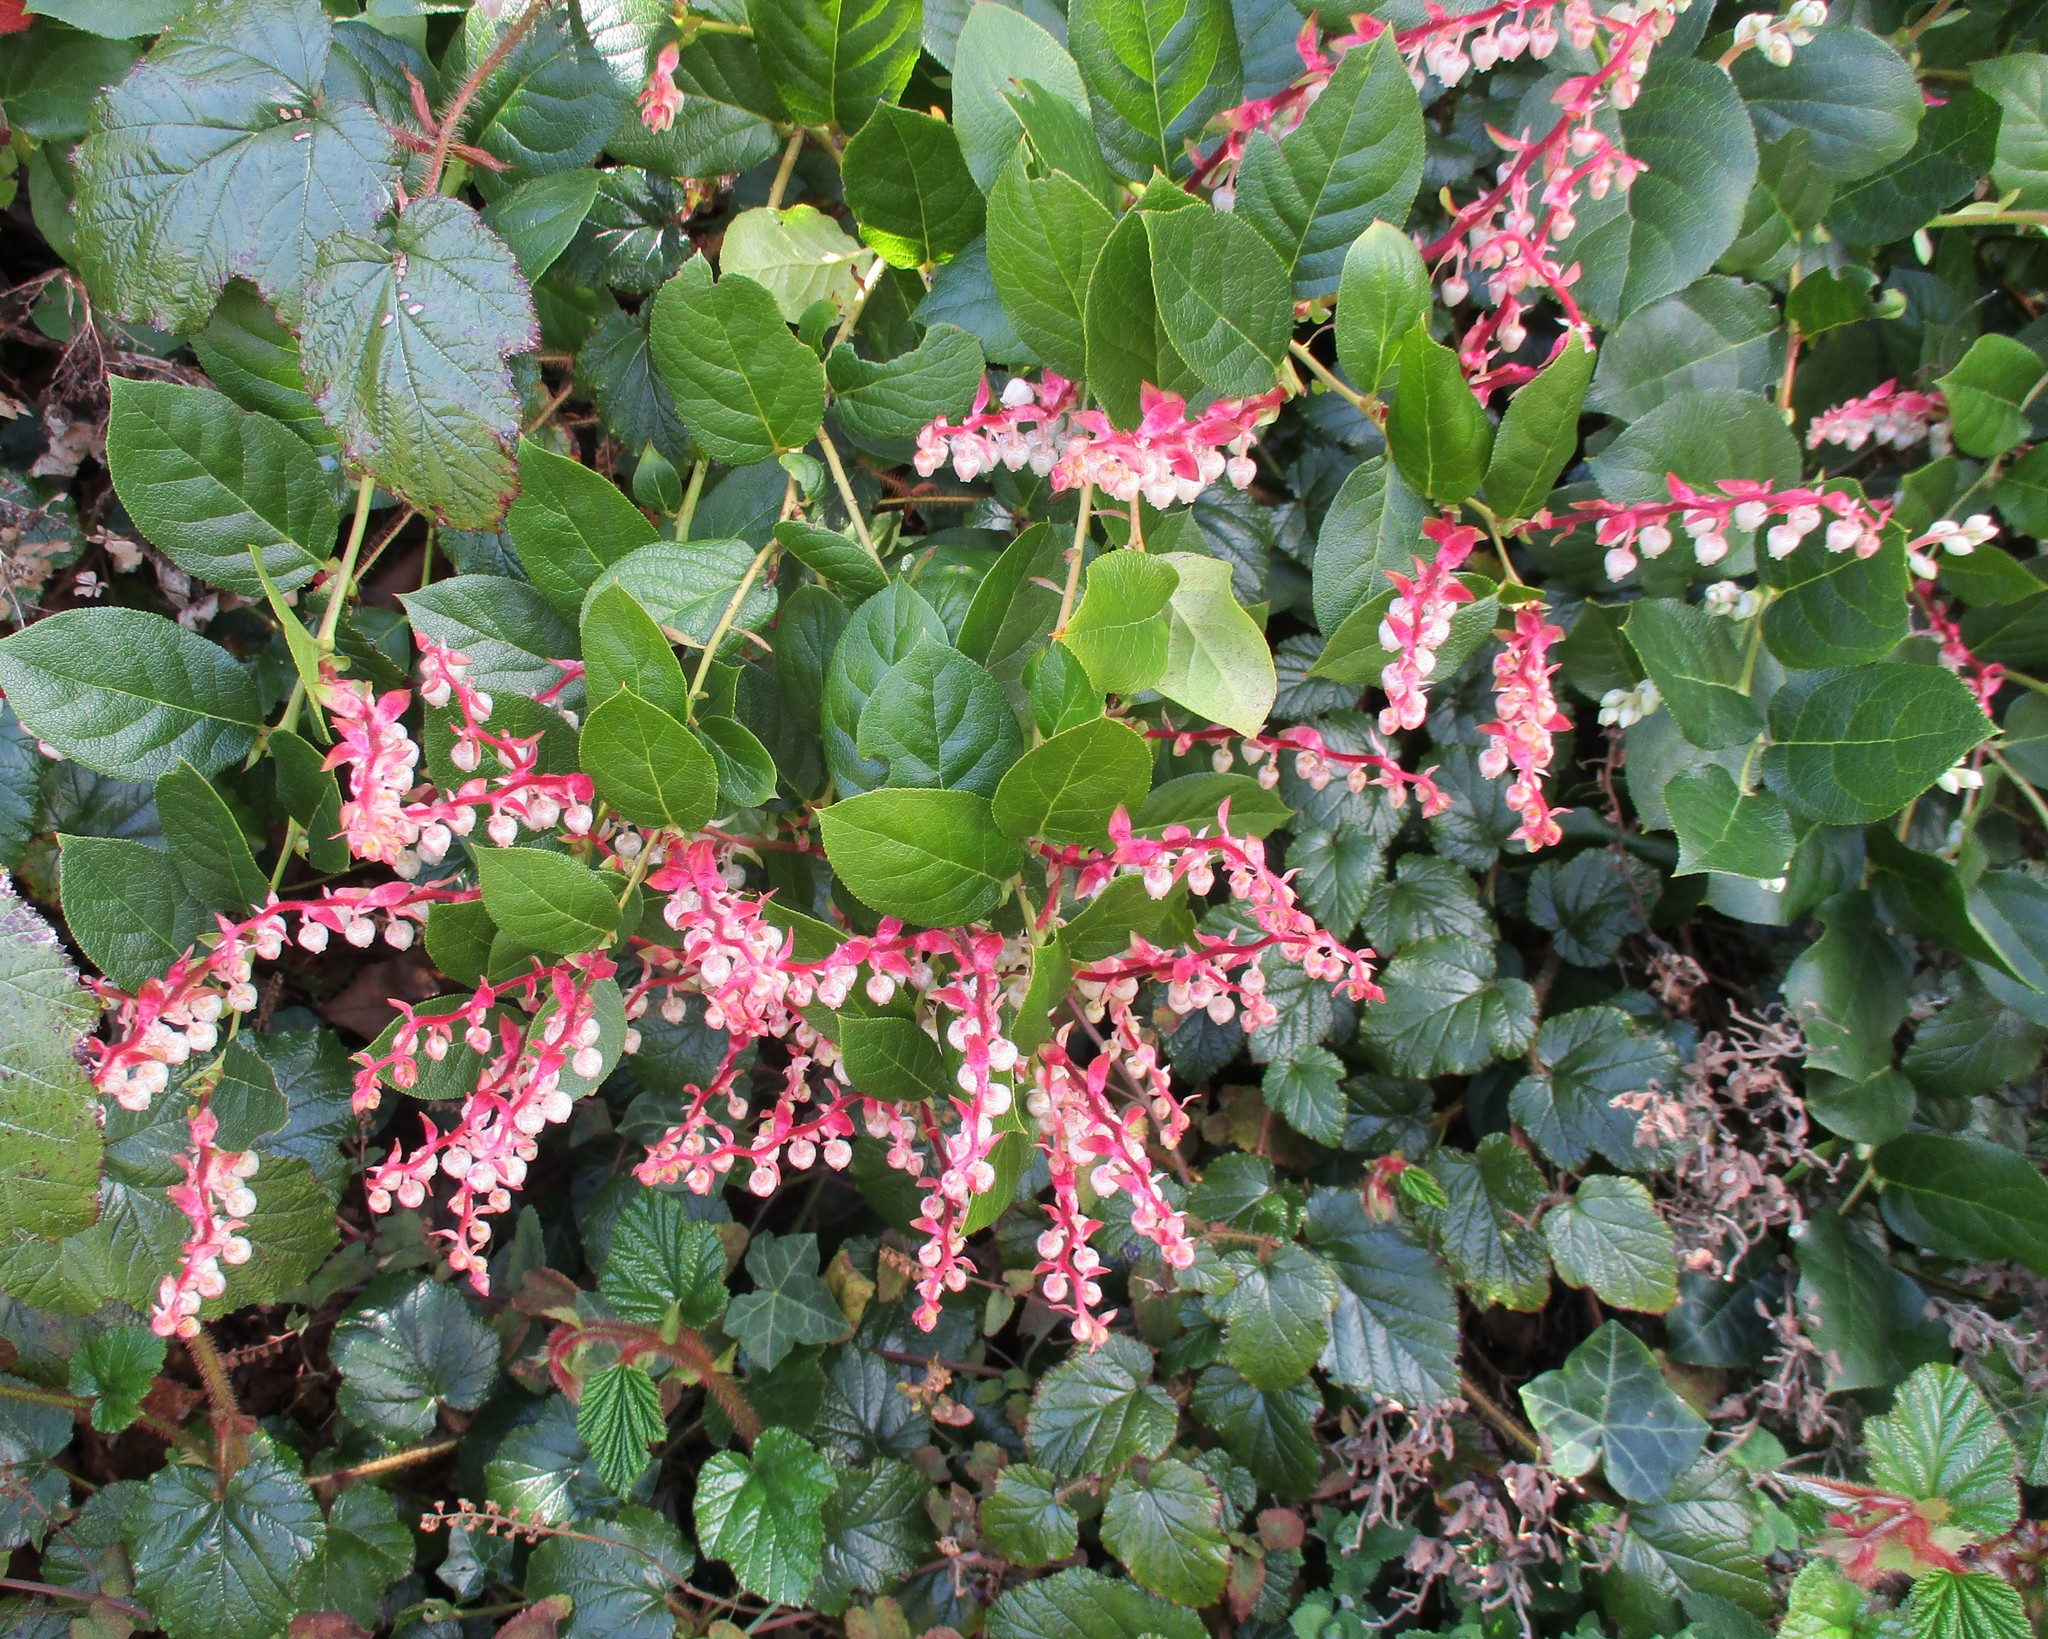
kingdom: Plantae
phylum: Tracheophyta
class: Magnoliopsida
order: Ericales
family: Ericaceae
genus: Gaultheria
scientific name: Gaultheria shallon
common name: Shallon
